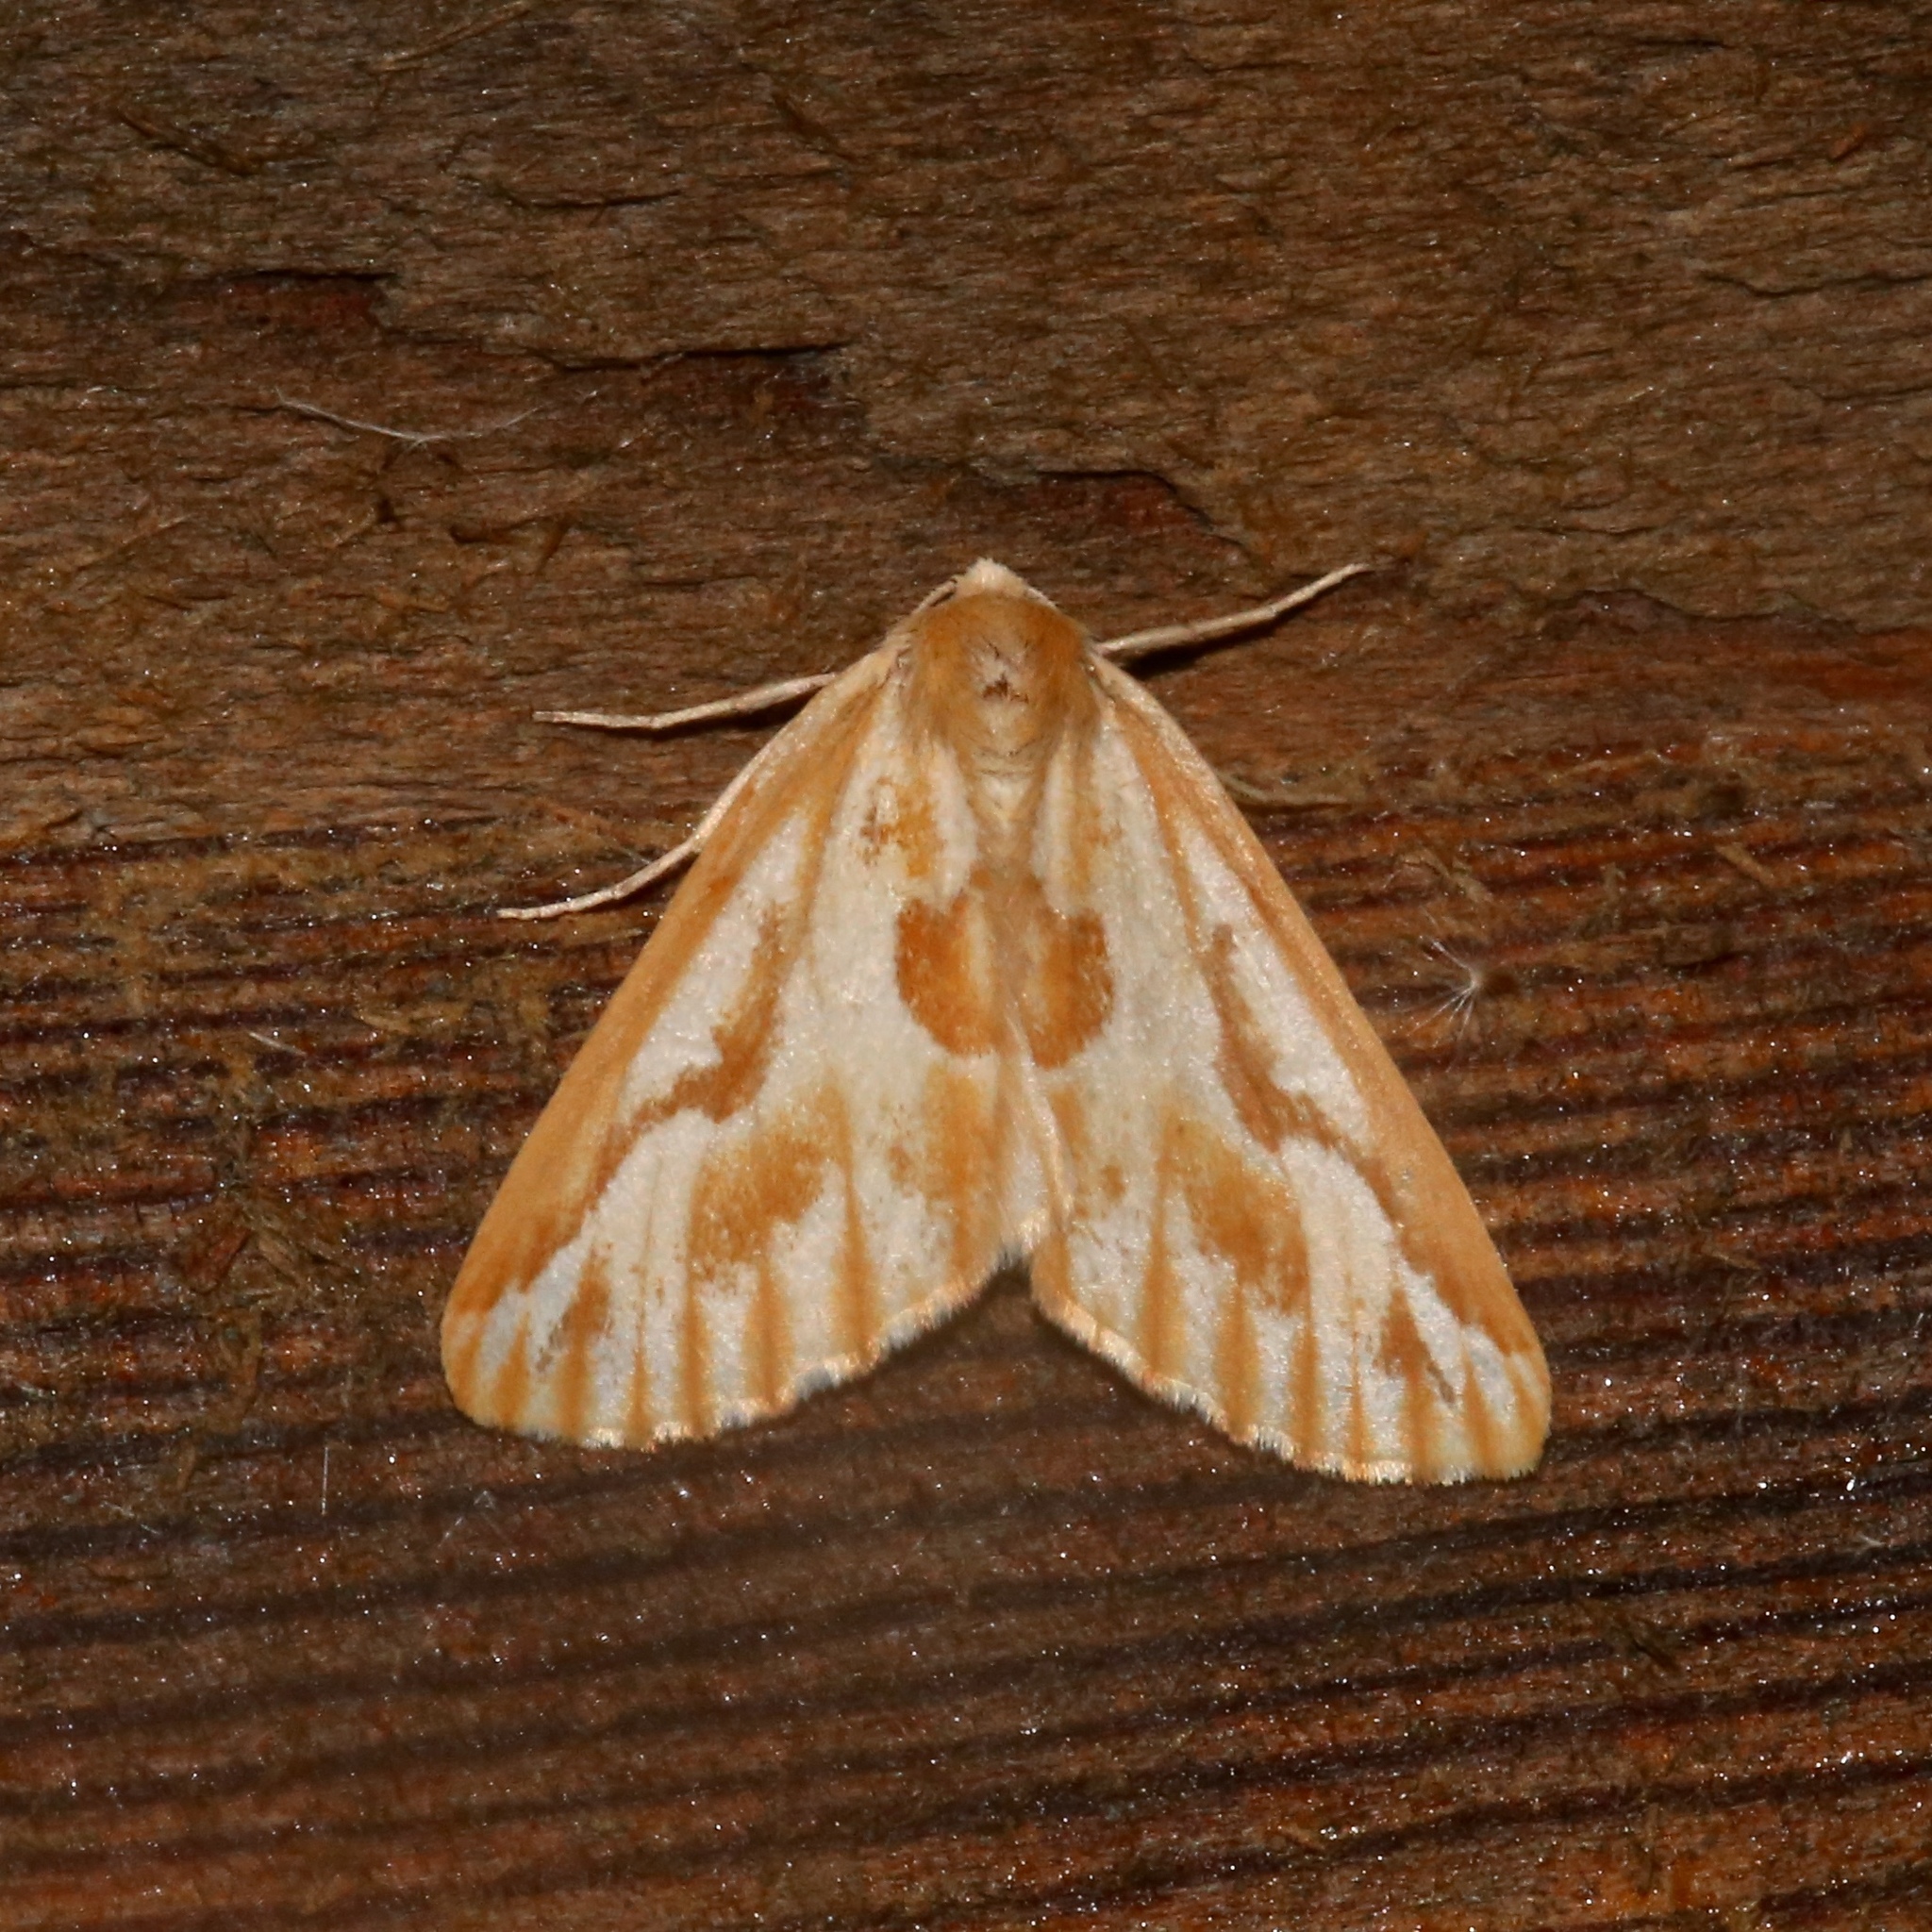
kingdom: Animalia
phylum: Arthropoda
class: Insecta
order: Lepidoptera
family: Geometridae
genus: Caripeta
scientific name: Caripeta piniata
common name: Northern pine looper moth
